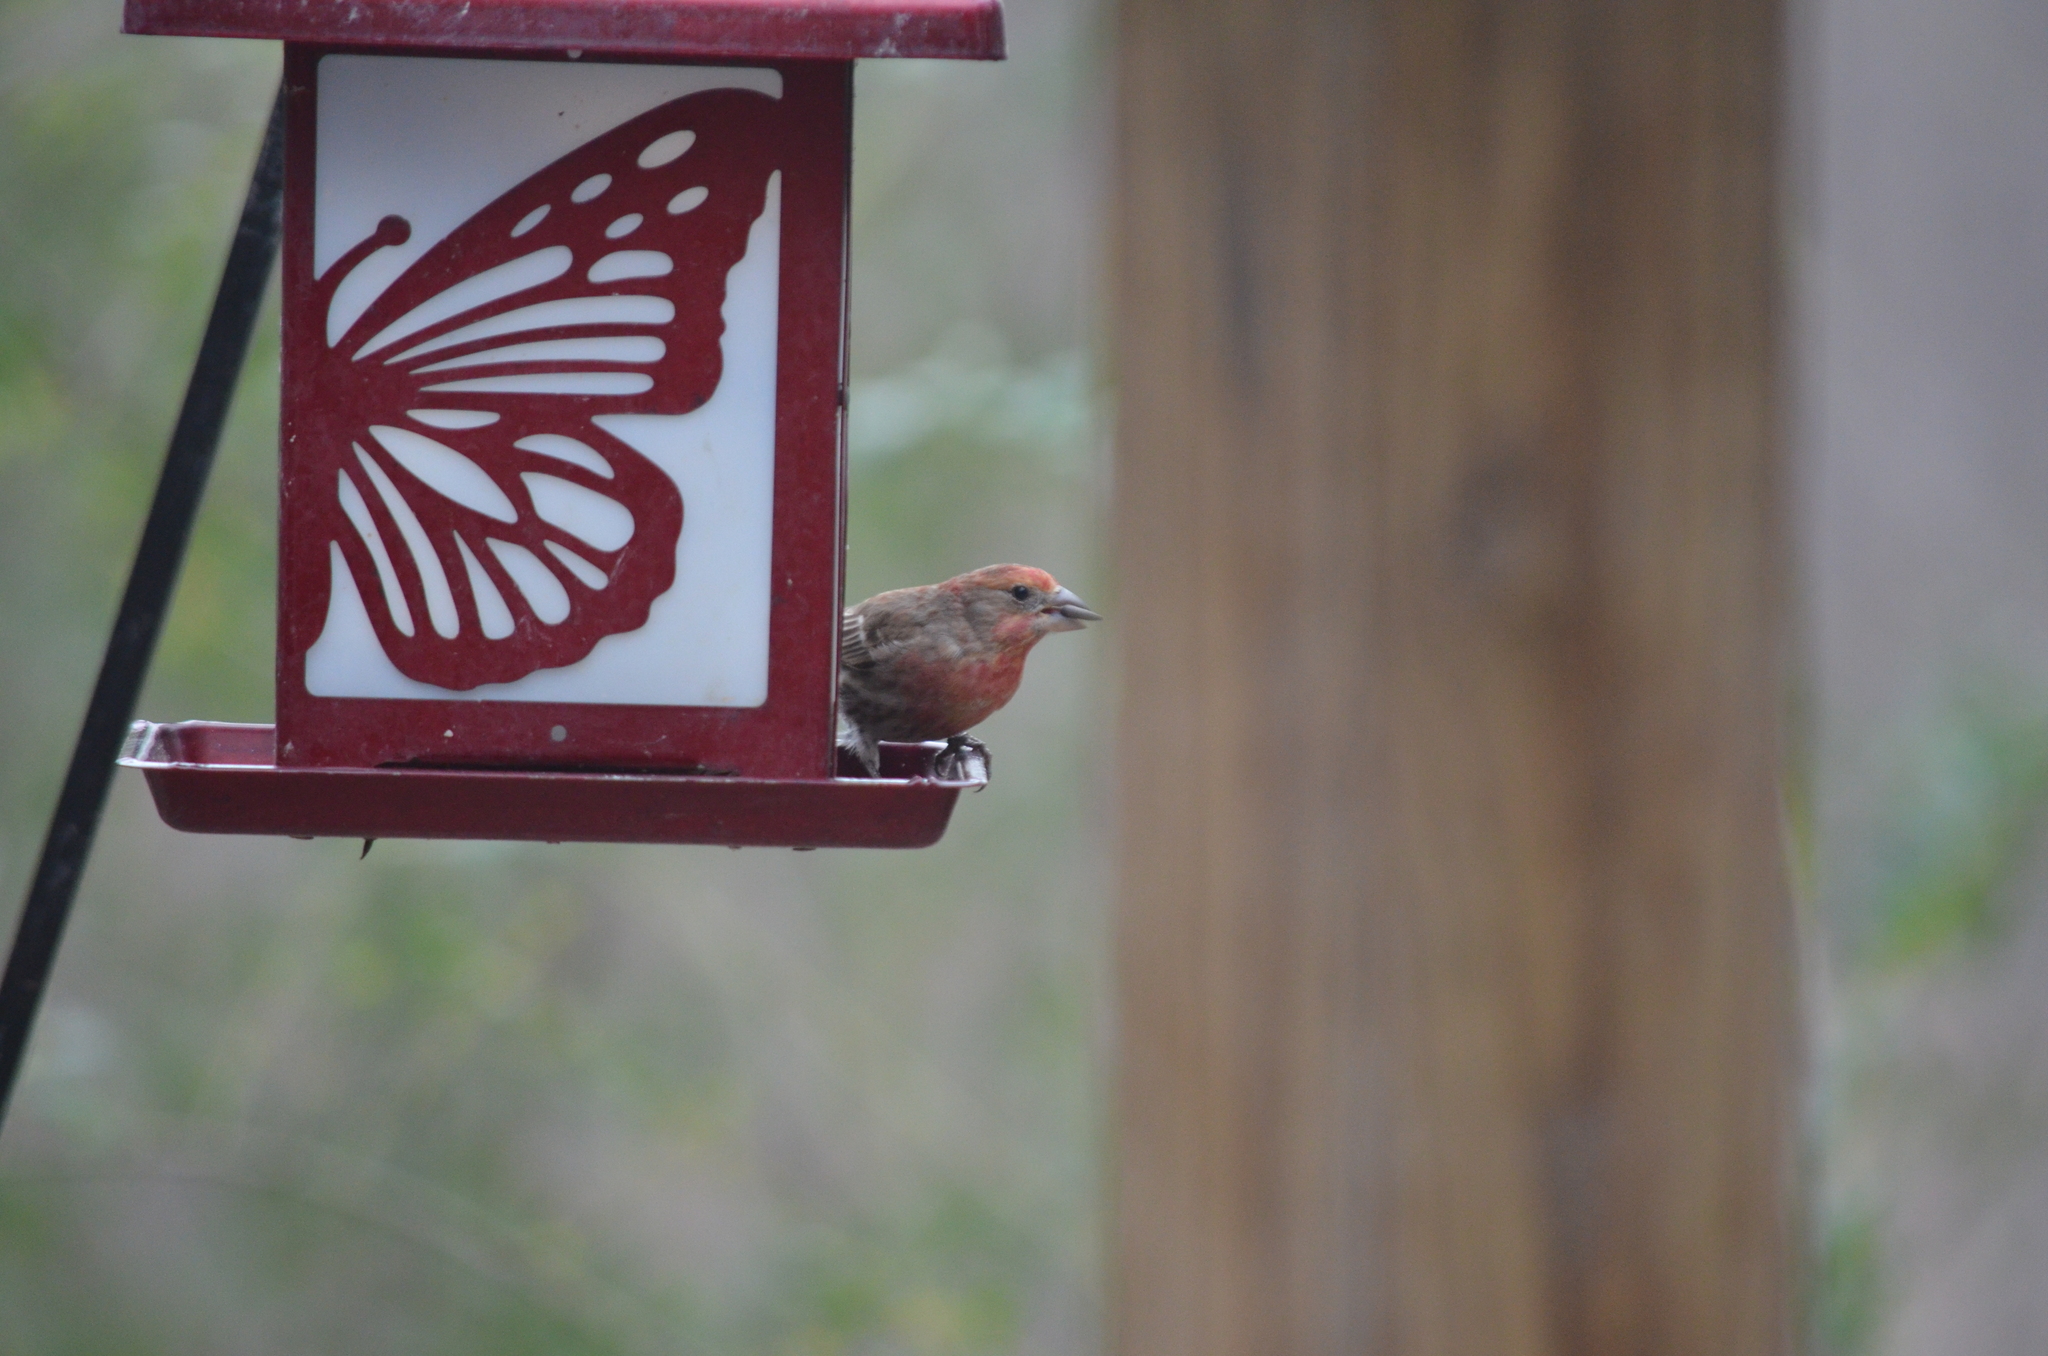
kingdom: Animalia
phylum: Chordata
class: Aves
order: Passeriformes
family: Fringillidae
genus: Haemorhous
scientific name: Haemorhous mexicanus
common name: House finch
